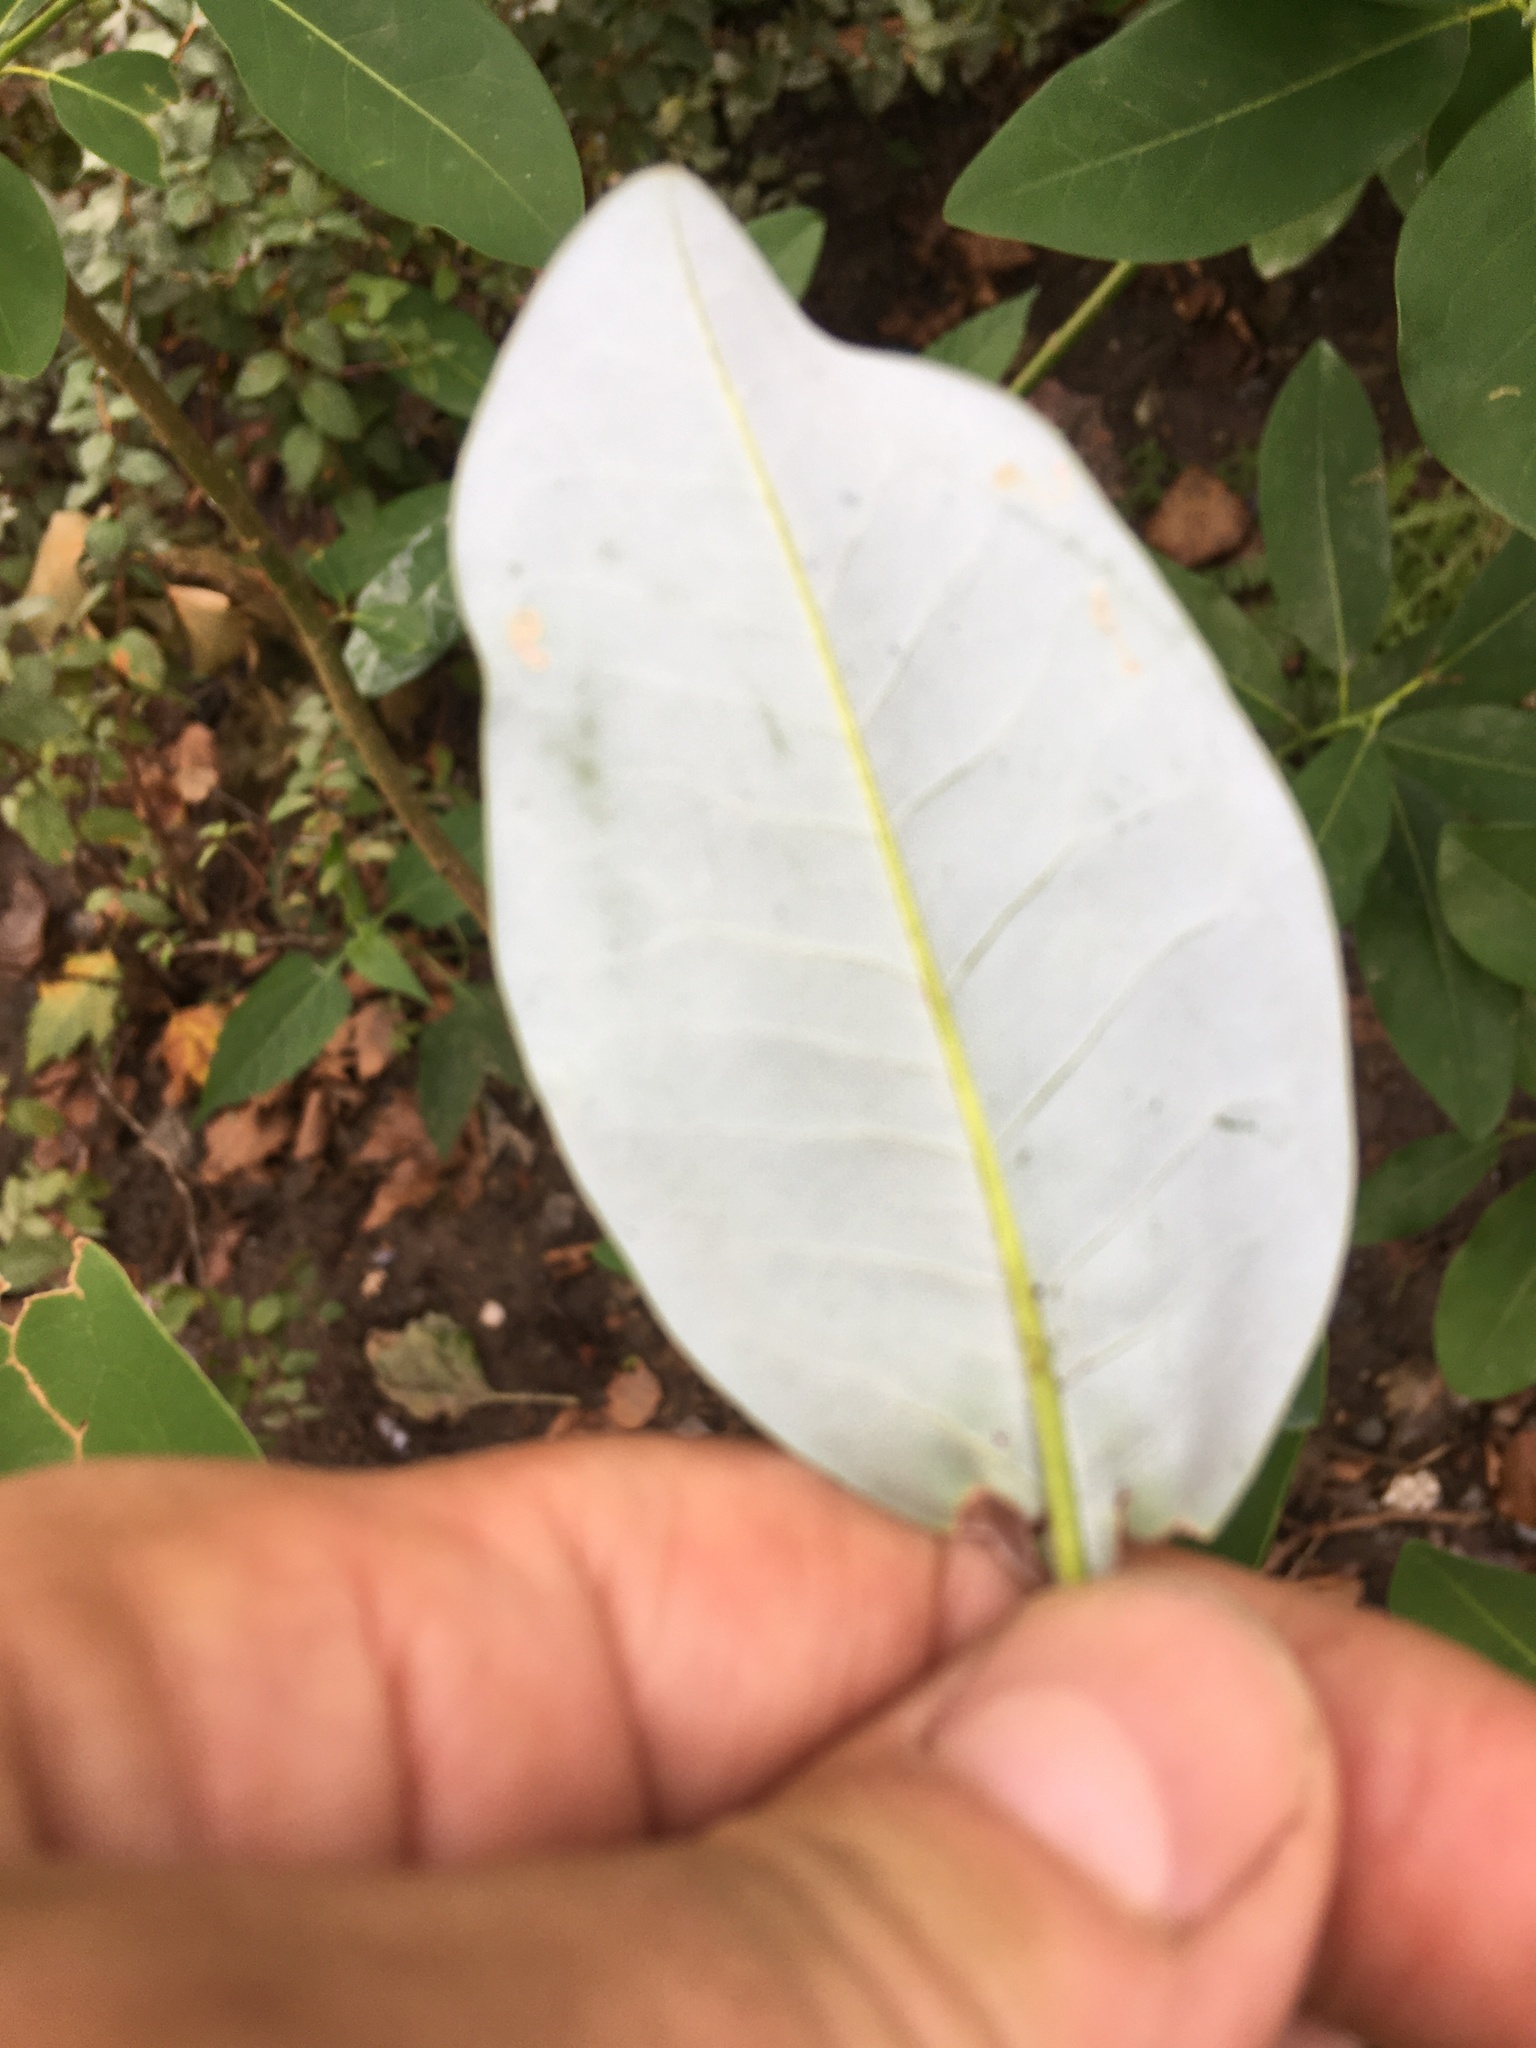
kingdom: Animalia
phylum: Arthropoda
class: Insecta
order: Lepidoptera
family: Gracillariidae
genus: Phyllocnistis
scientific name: Phyllocnistis liriodendronella
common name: Tulip tree leaf miner
